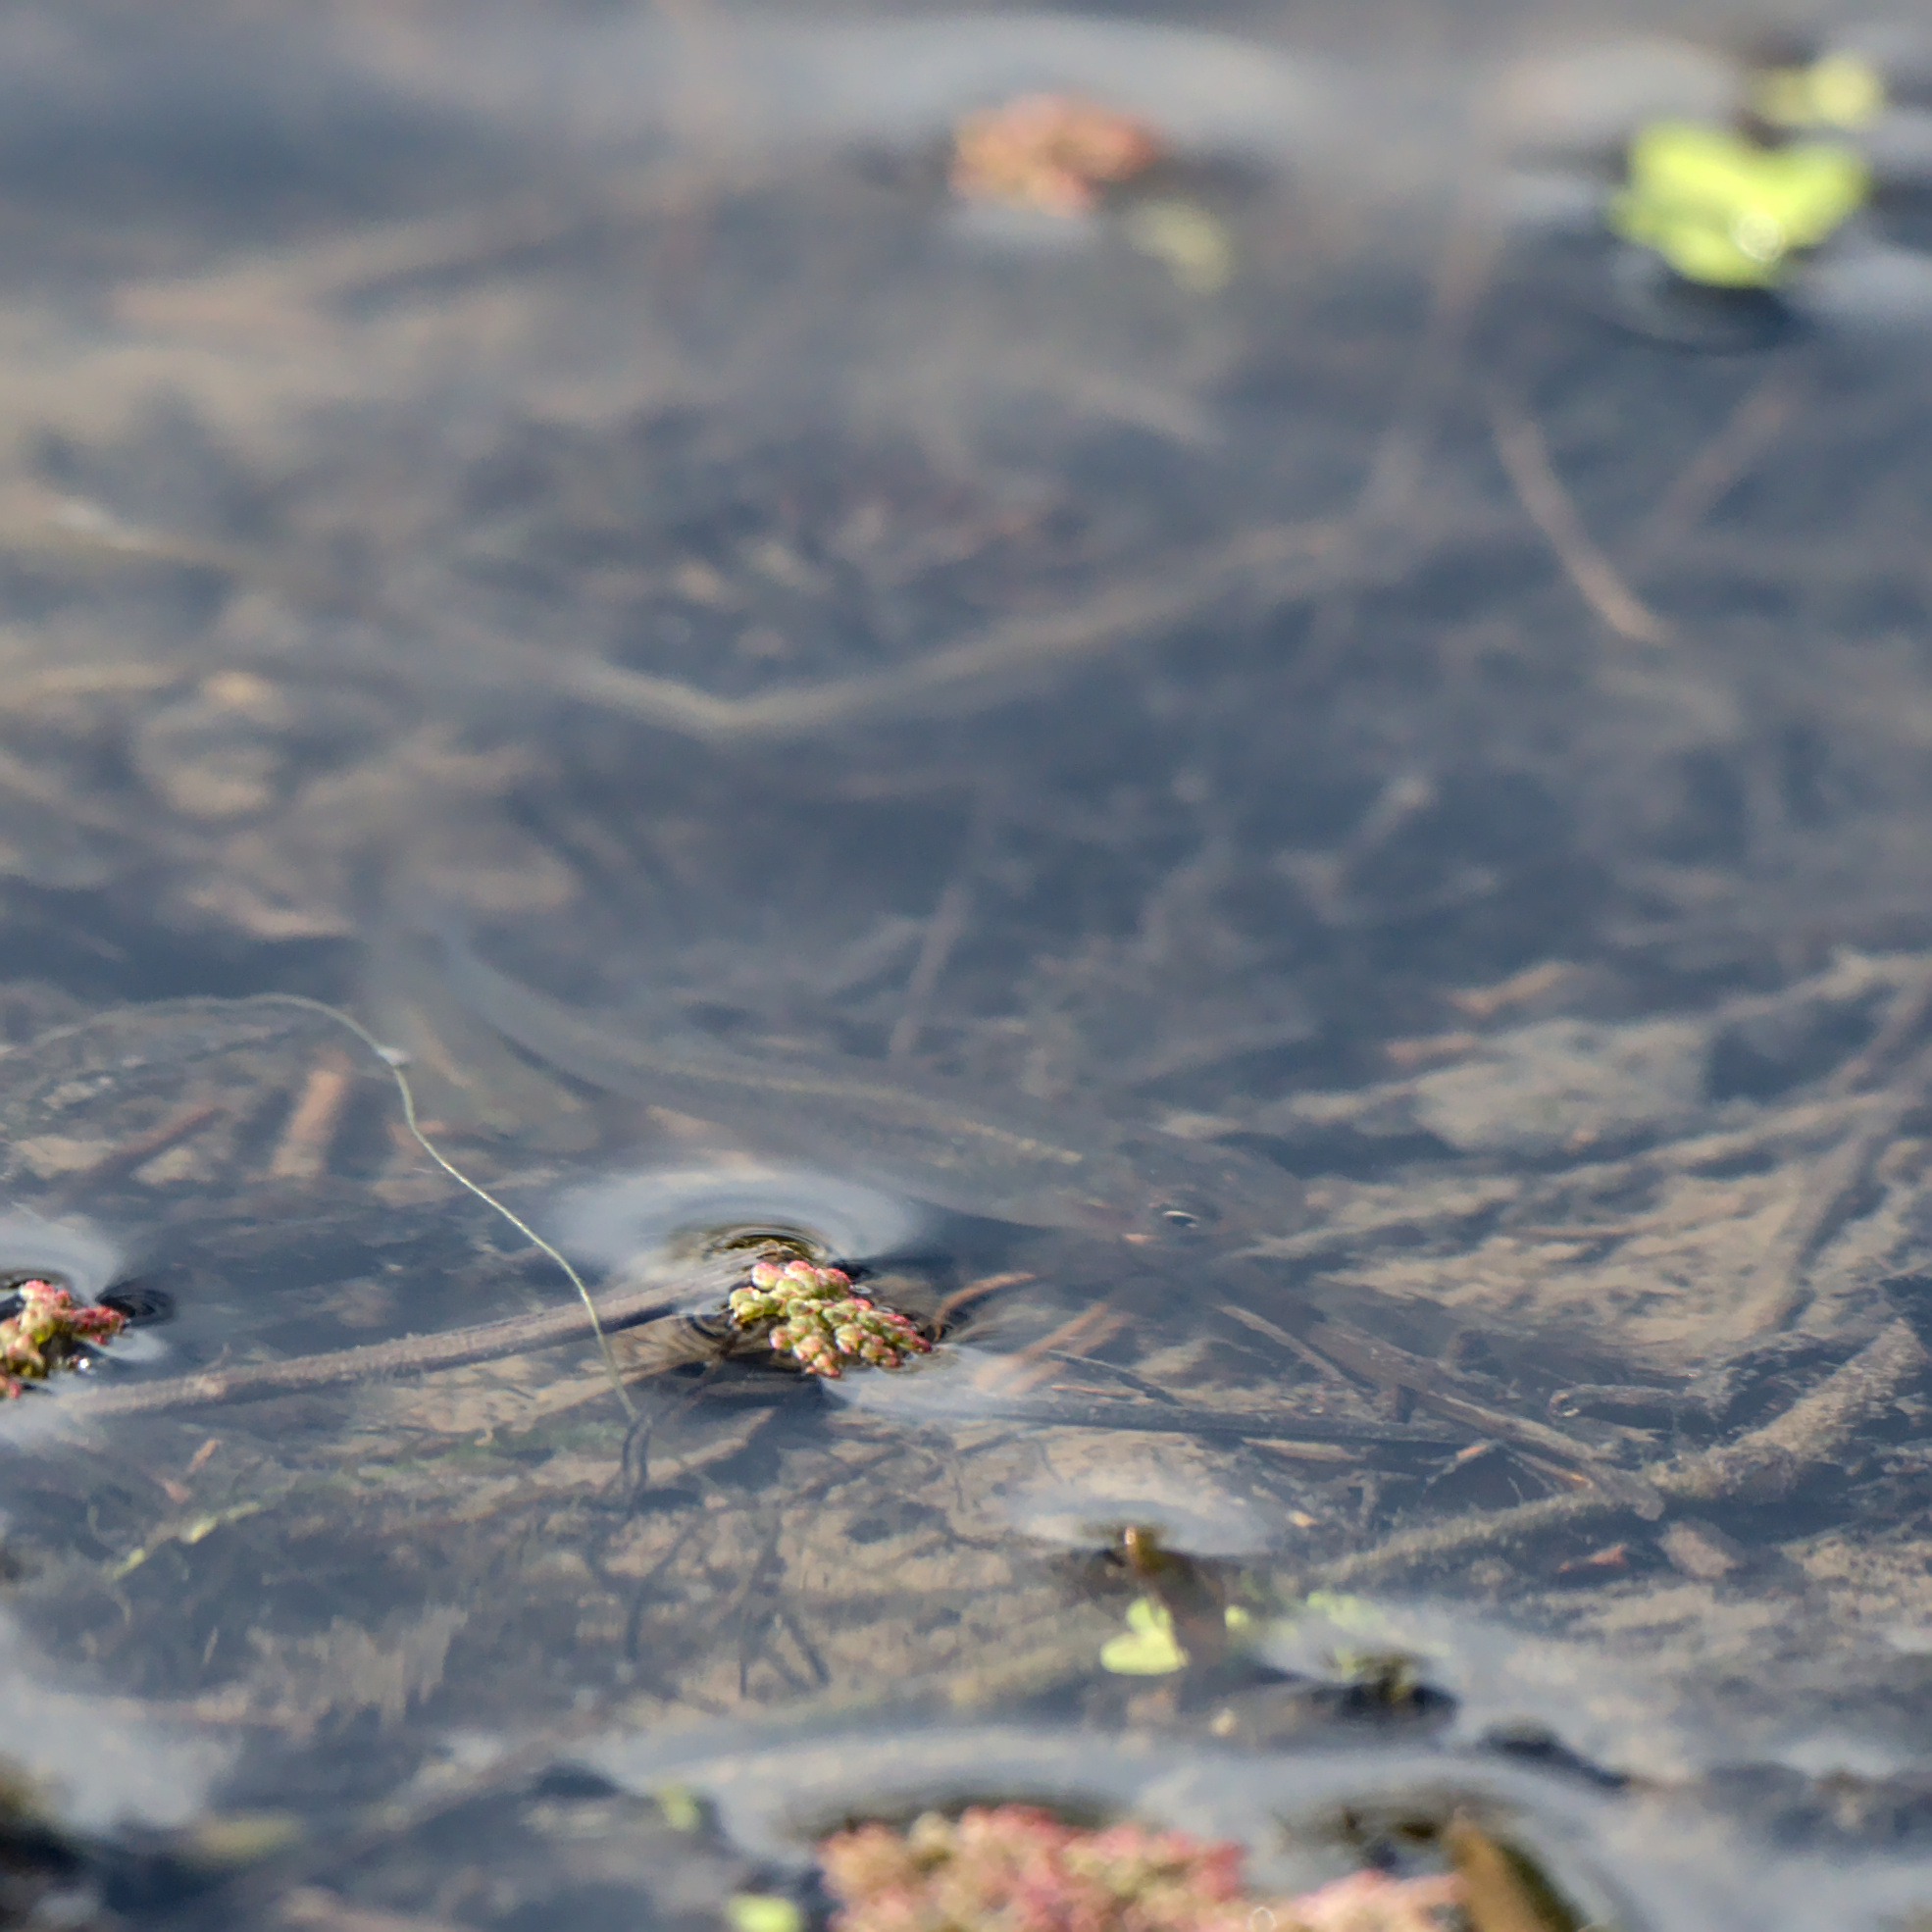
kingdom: Animalia
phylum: Chordata
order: Cyprinodontiformes
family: Poeciliidae
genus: Gambusia
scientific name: Gambusia affinis
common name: Mosquitofish
